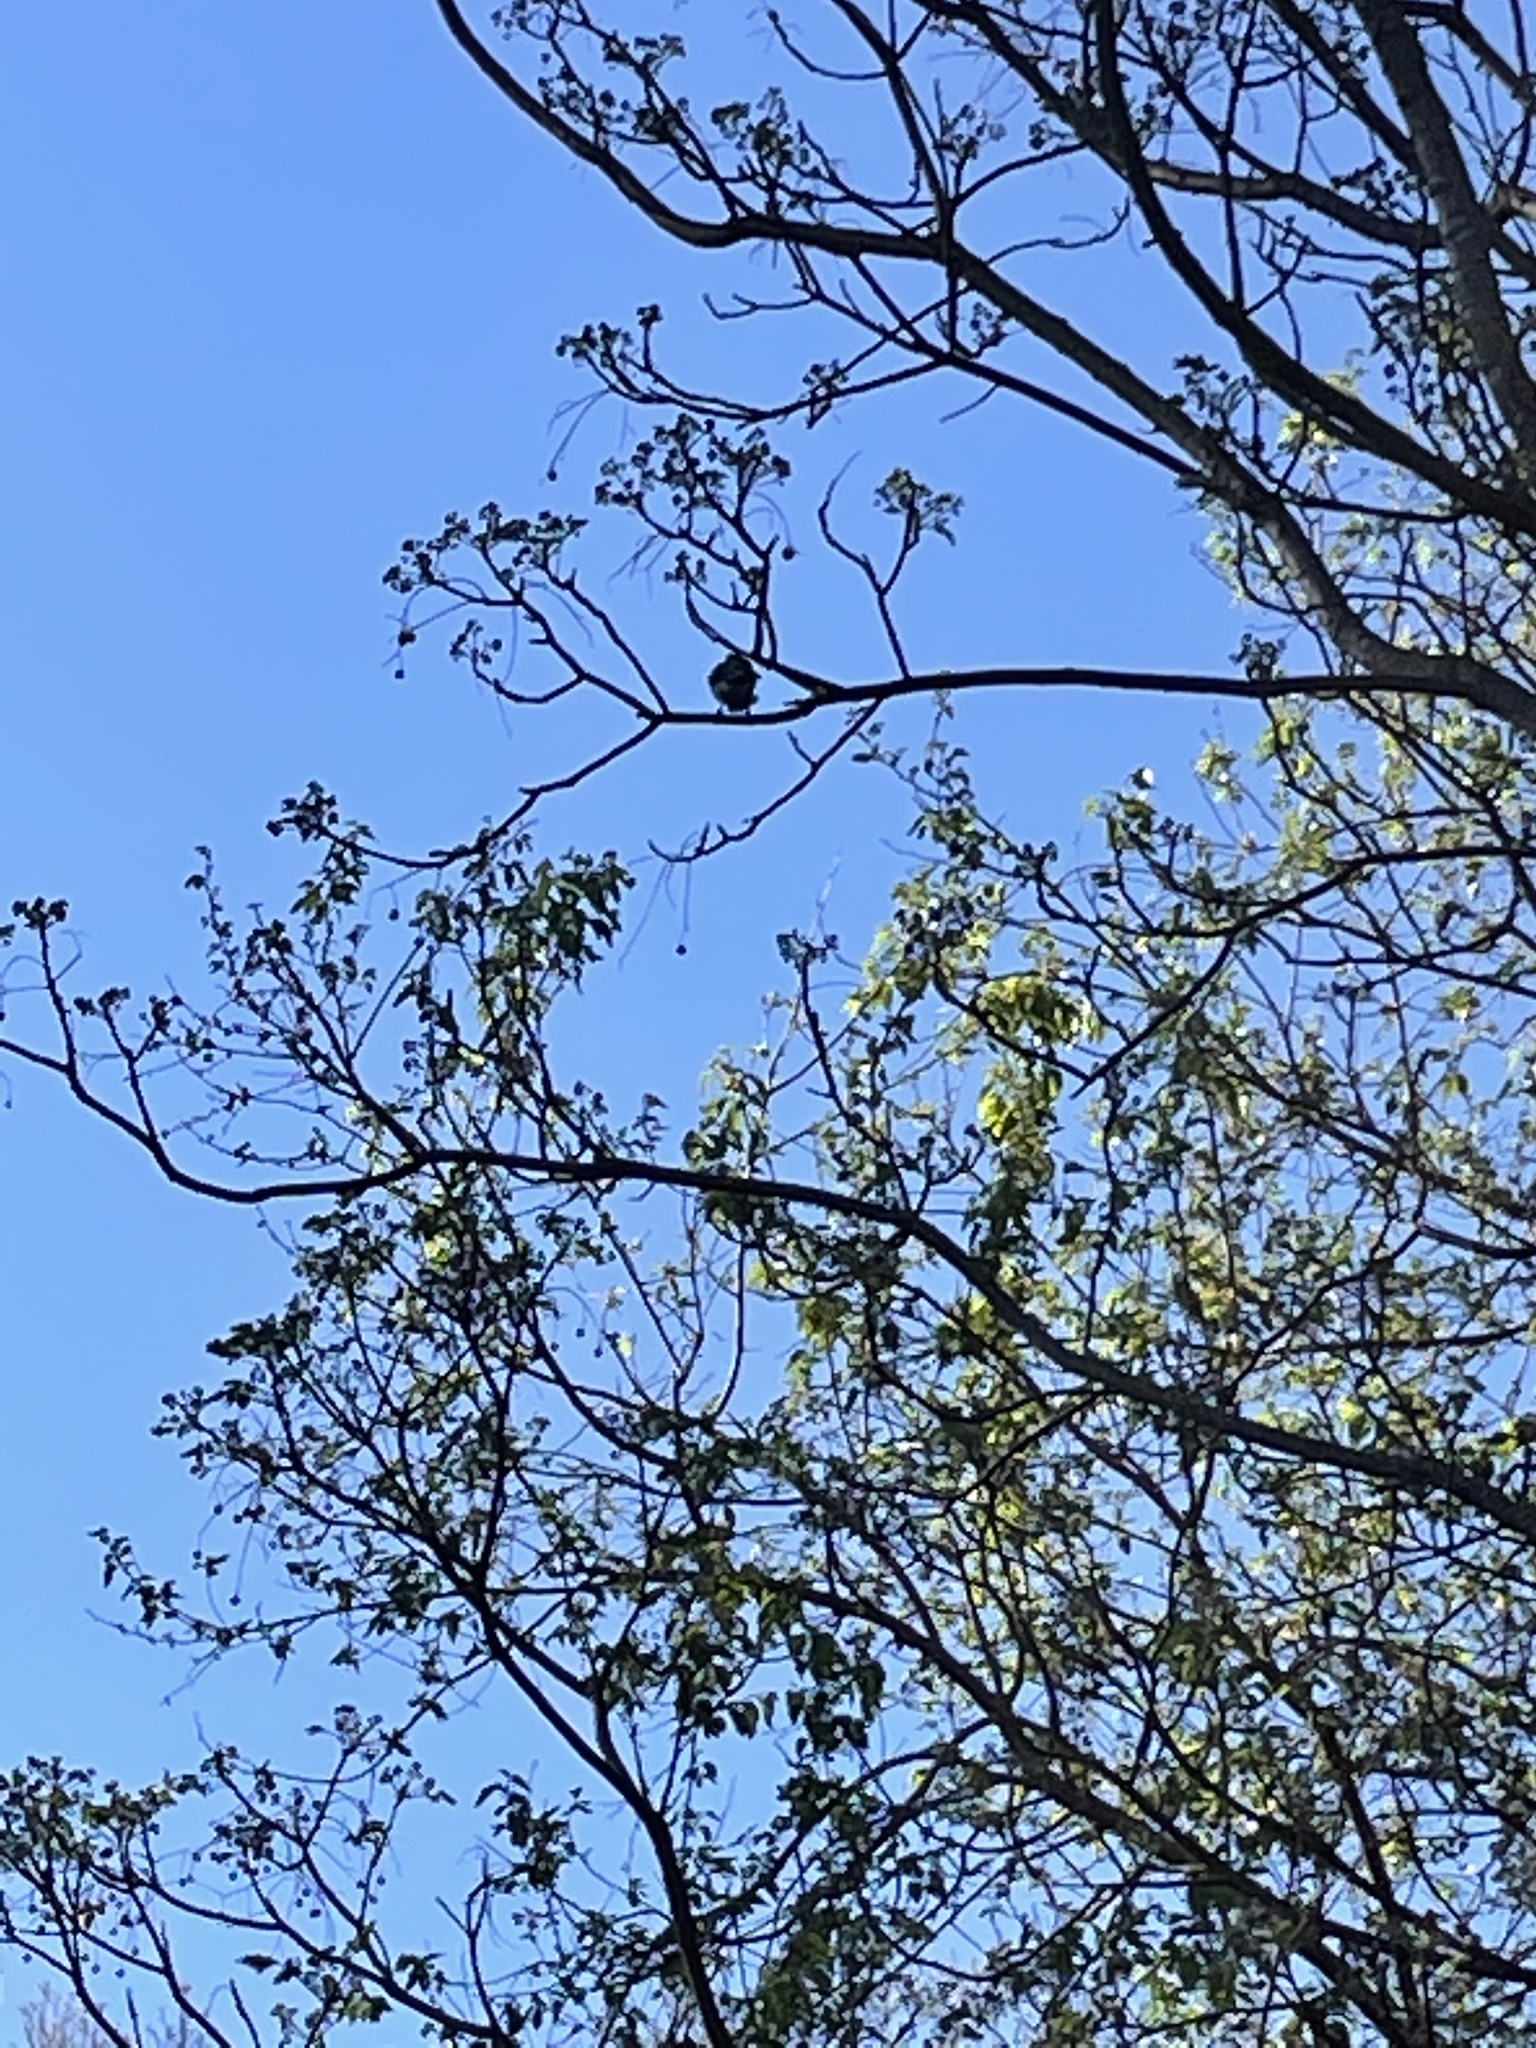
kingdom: Animalia
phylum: Chordata
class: Aves
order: Passeriformes
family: Corvidae
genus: Cyanocitta
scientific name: Cyanocitta cristata
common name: Blue jay
